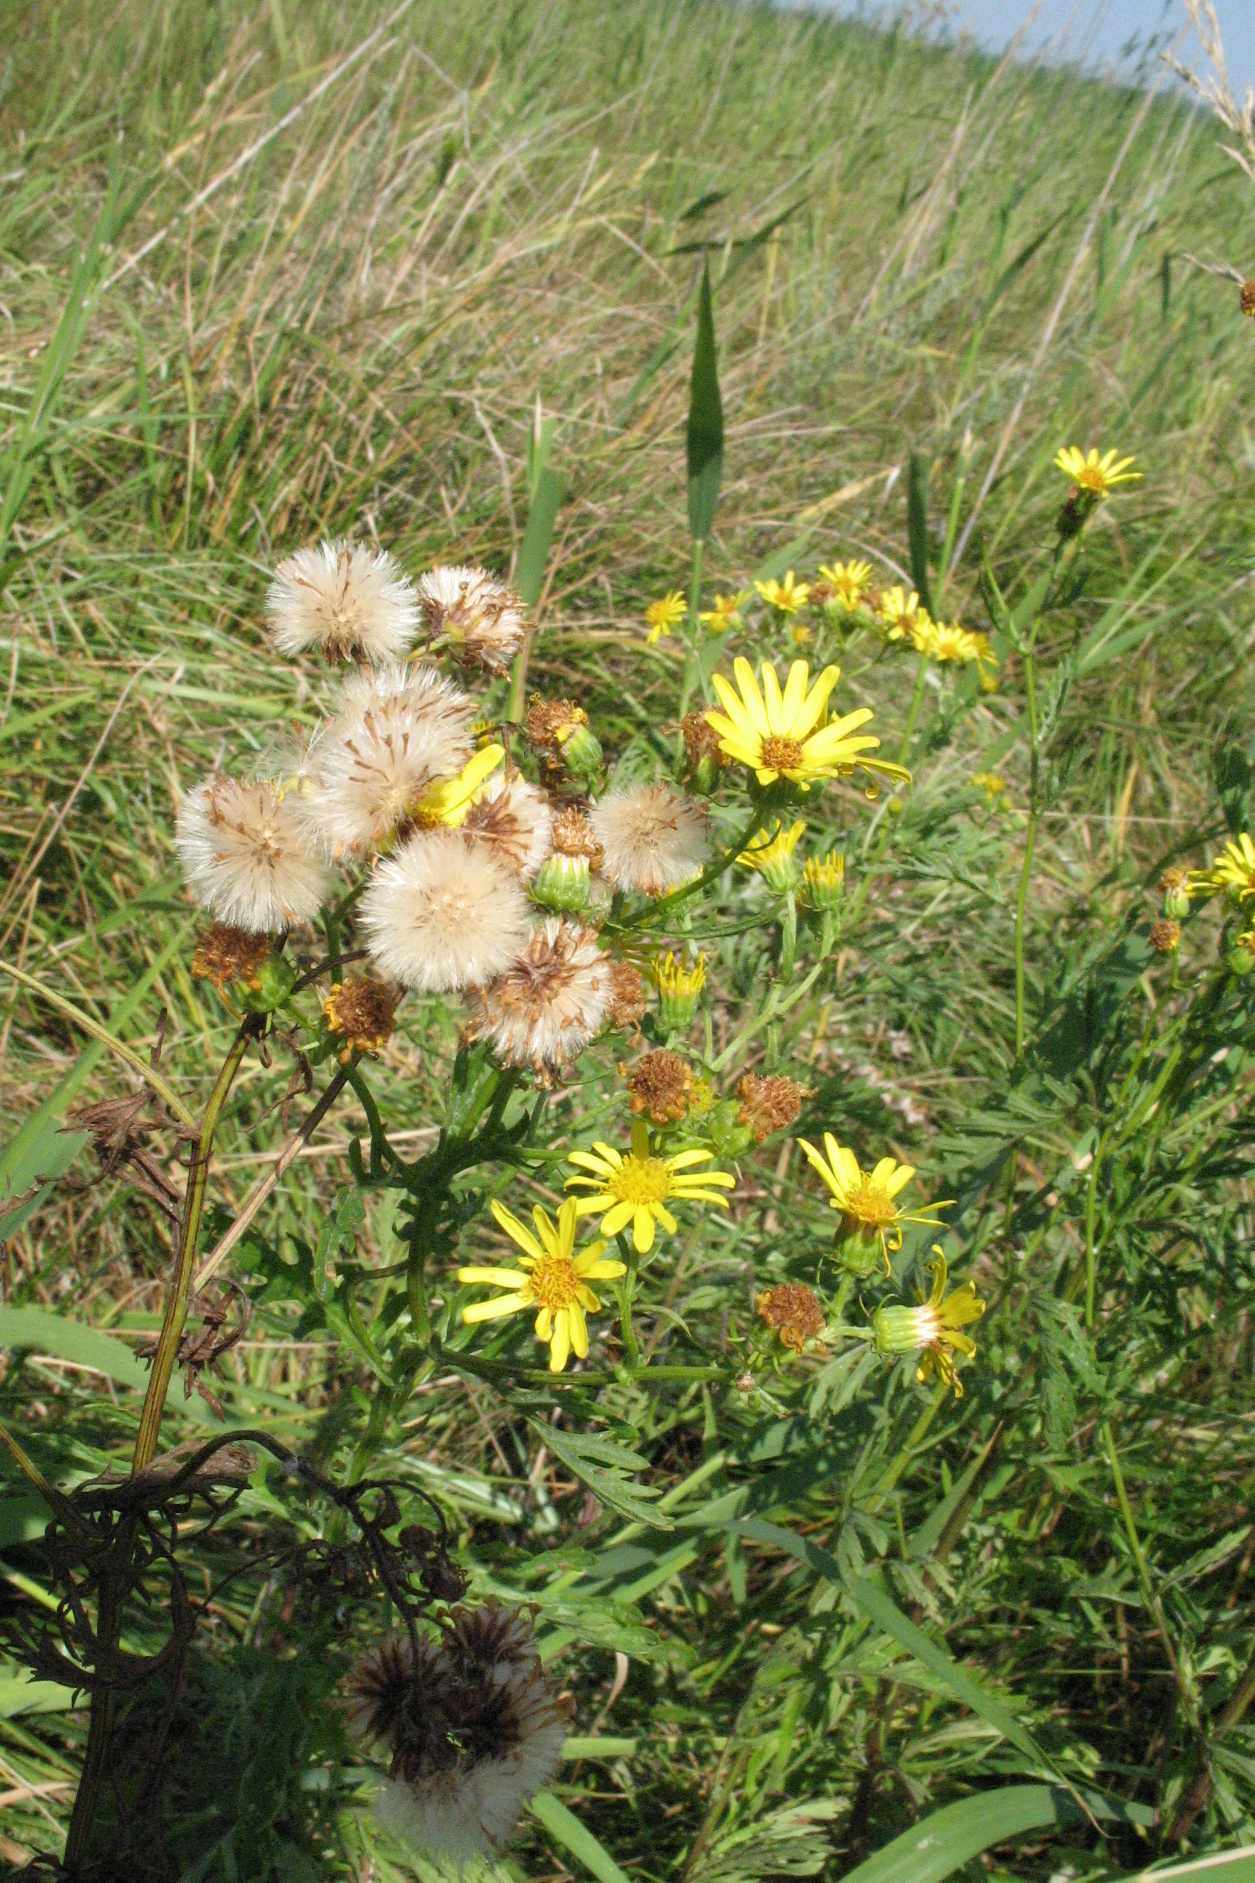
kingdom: Plantae
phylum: Tracheophyta
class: Magnoliopsida
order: Asterales
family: Asteraceae
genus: Jacobaea
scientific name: Jacobaea erucifolia
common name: Hoary ragwort
